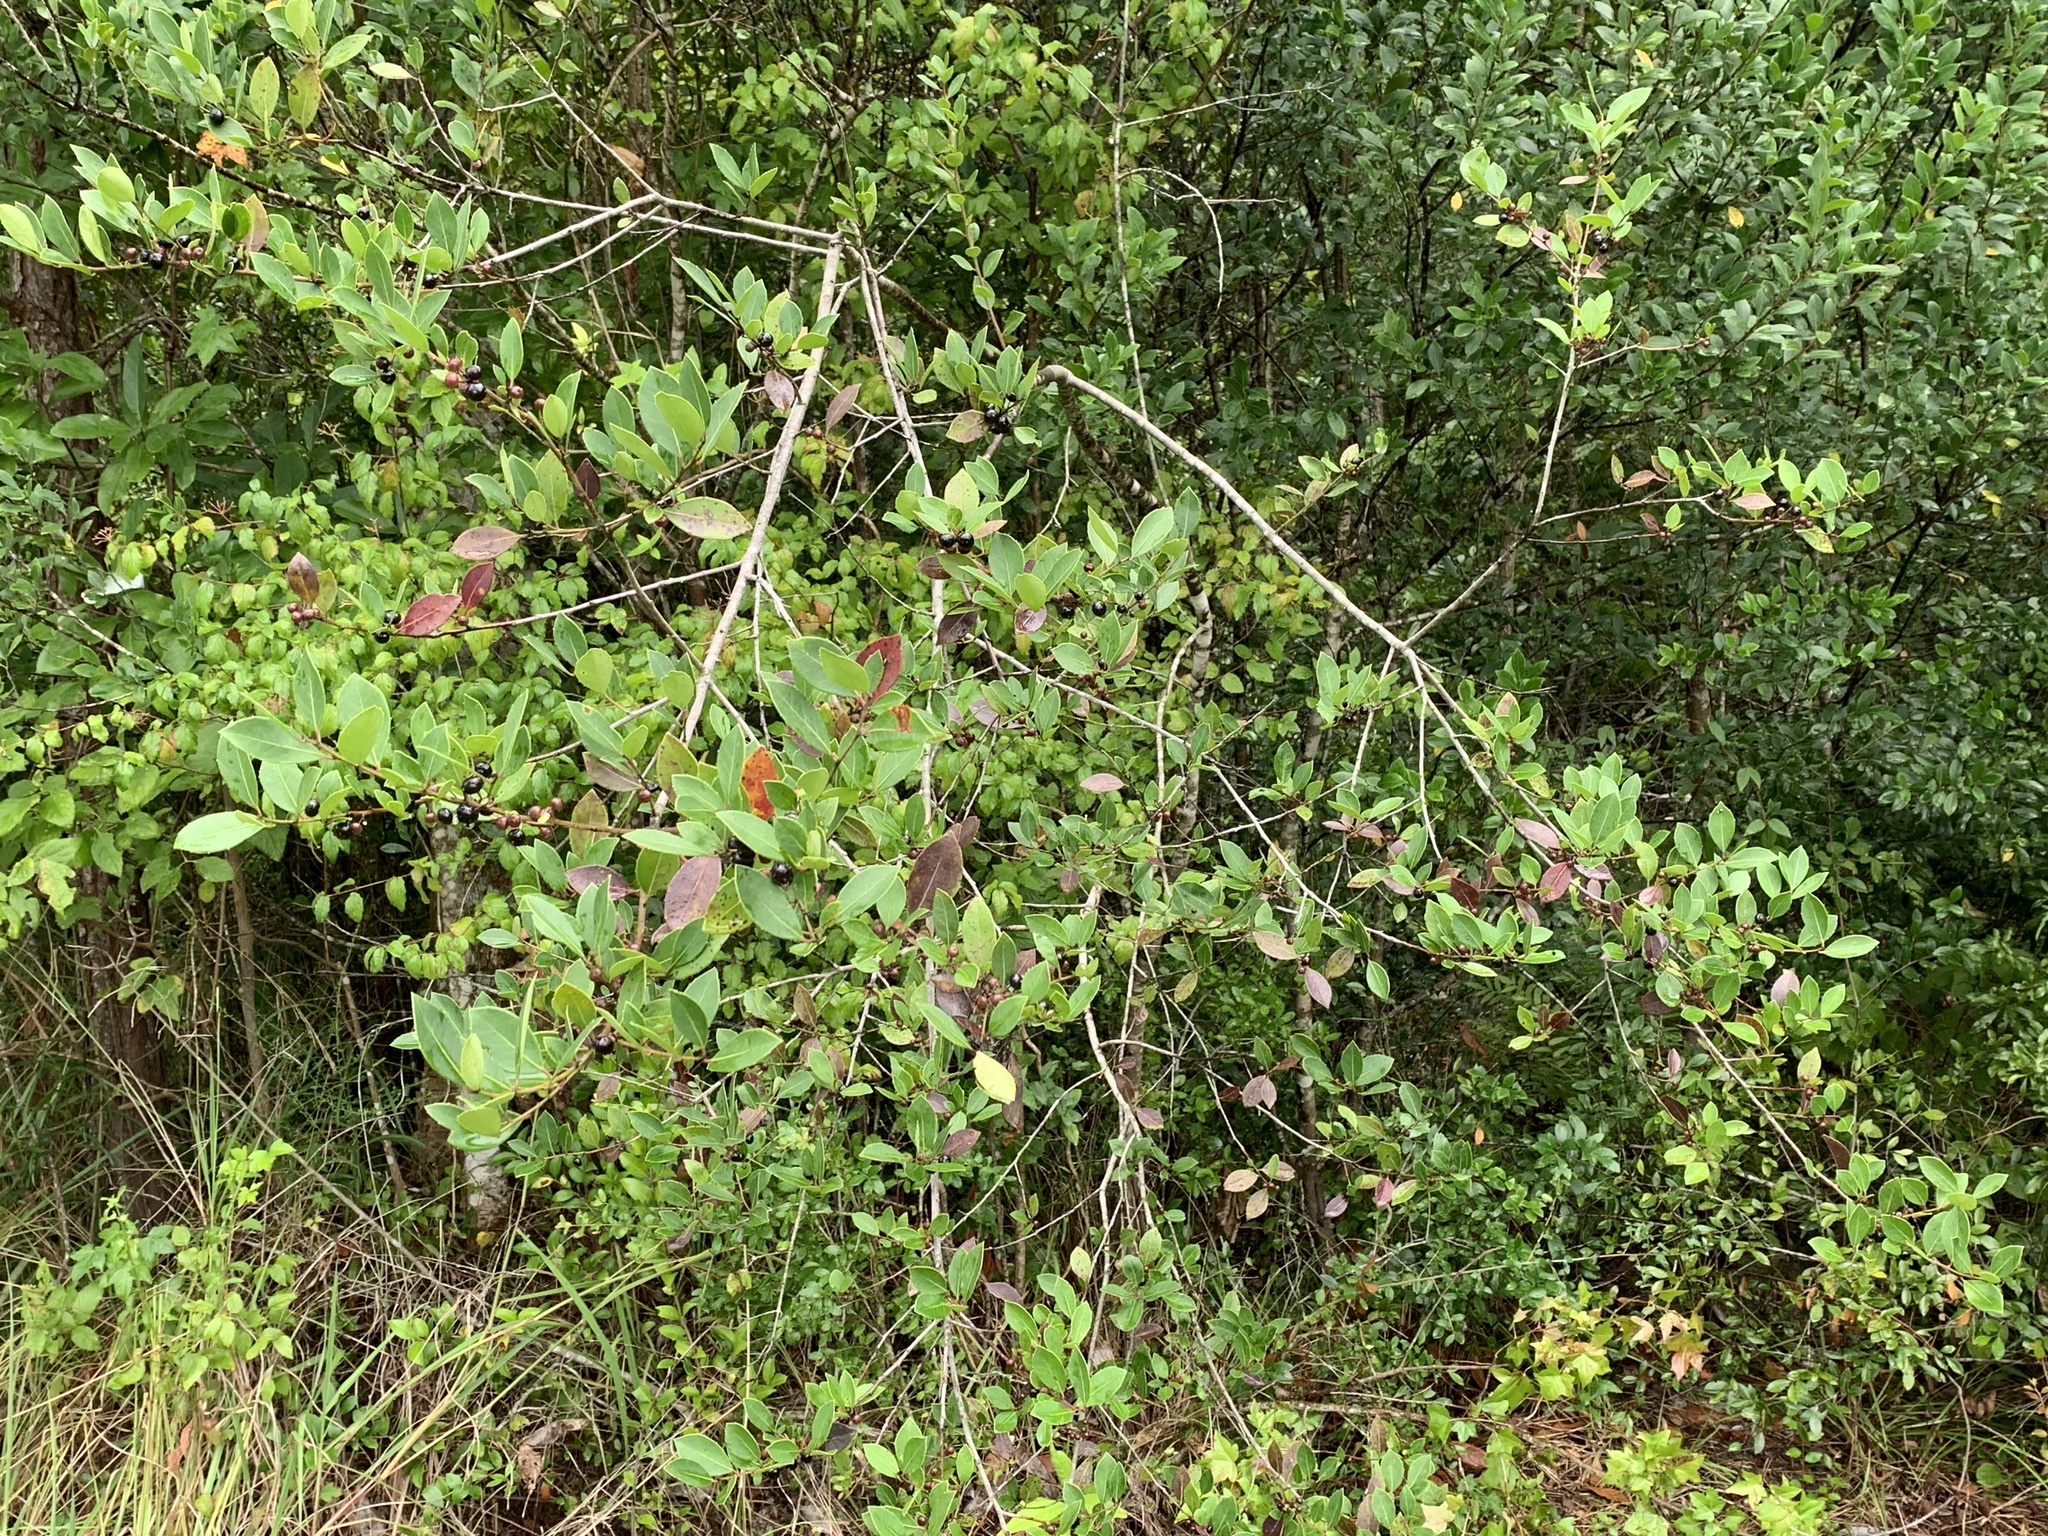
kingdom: Plantae
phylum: Tracheophyta
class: Magnoliopsida
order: Aquifoliales
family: Aquifoliaceae
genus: Ilex
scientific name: Ilex coriacea
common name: Sweet gallberry
